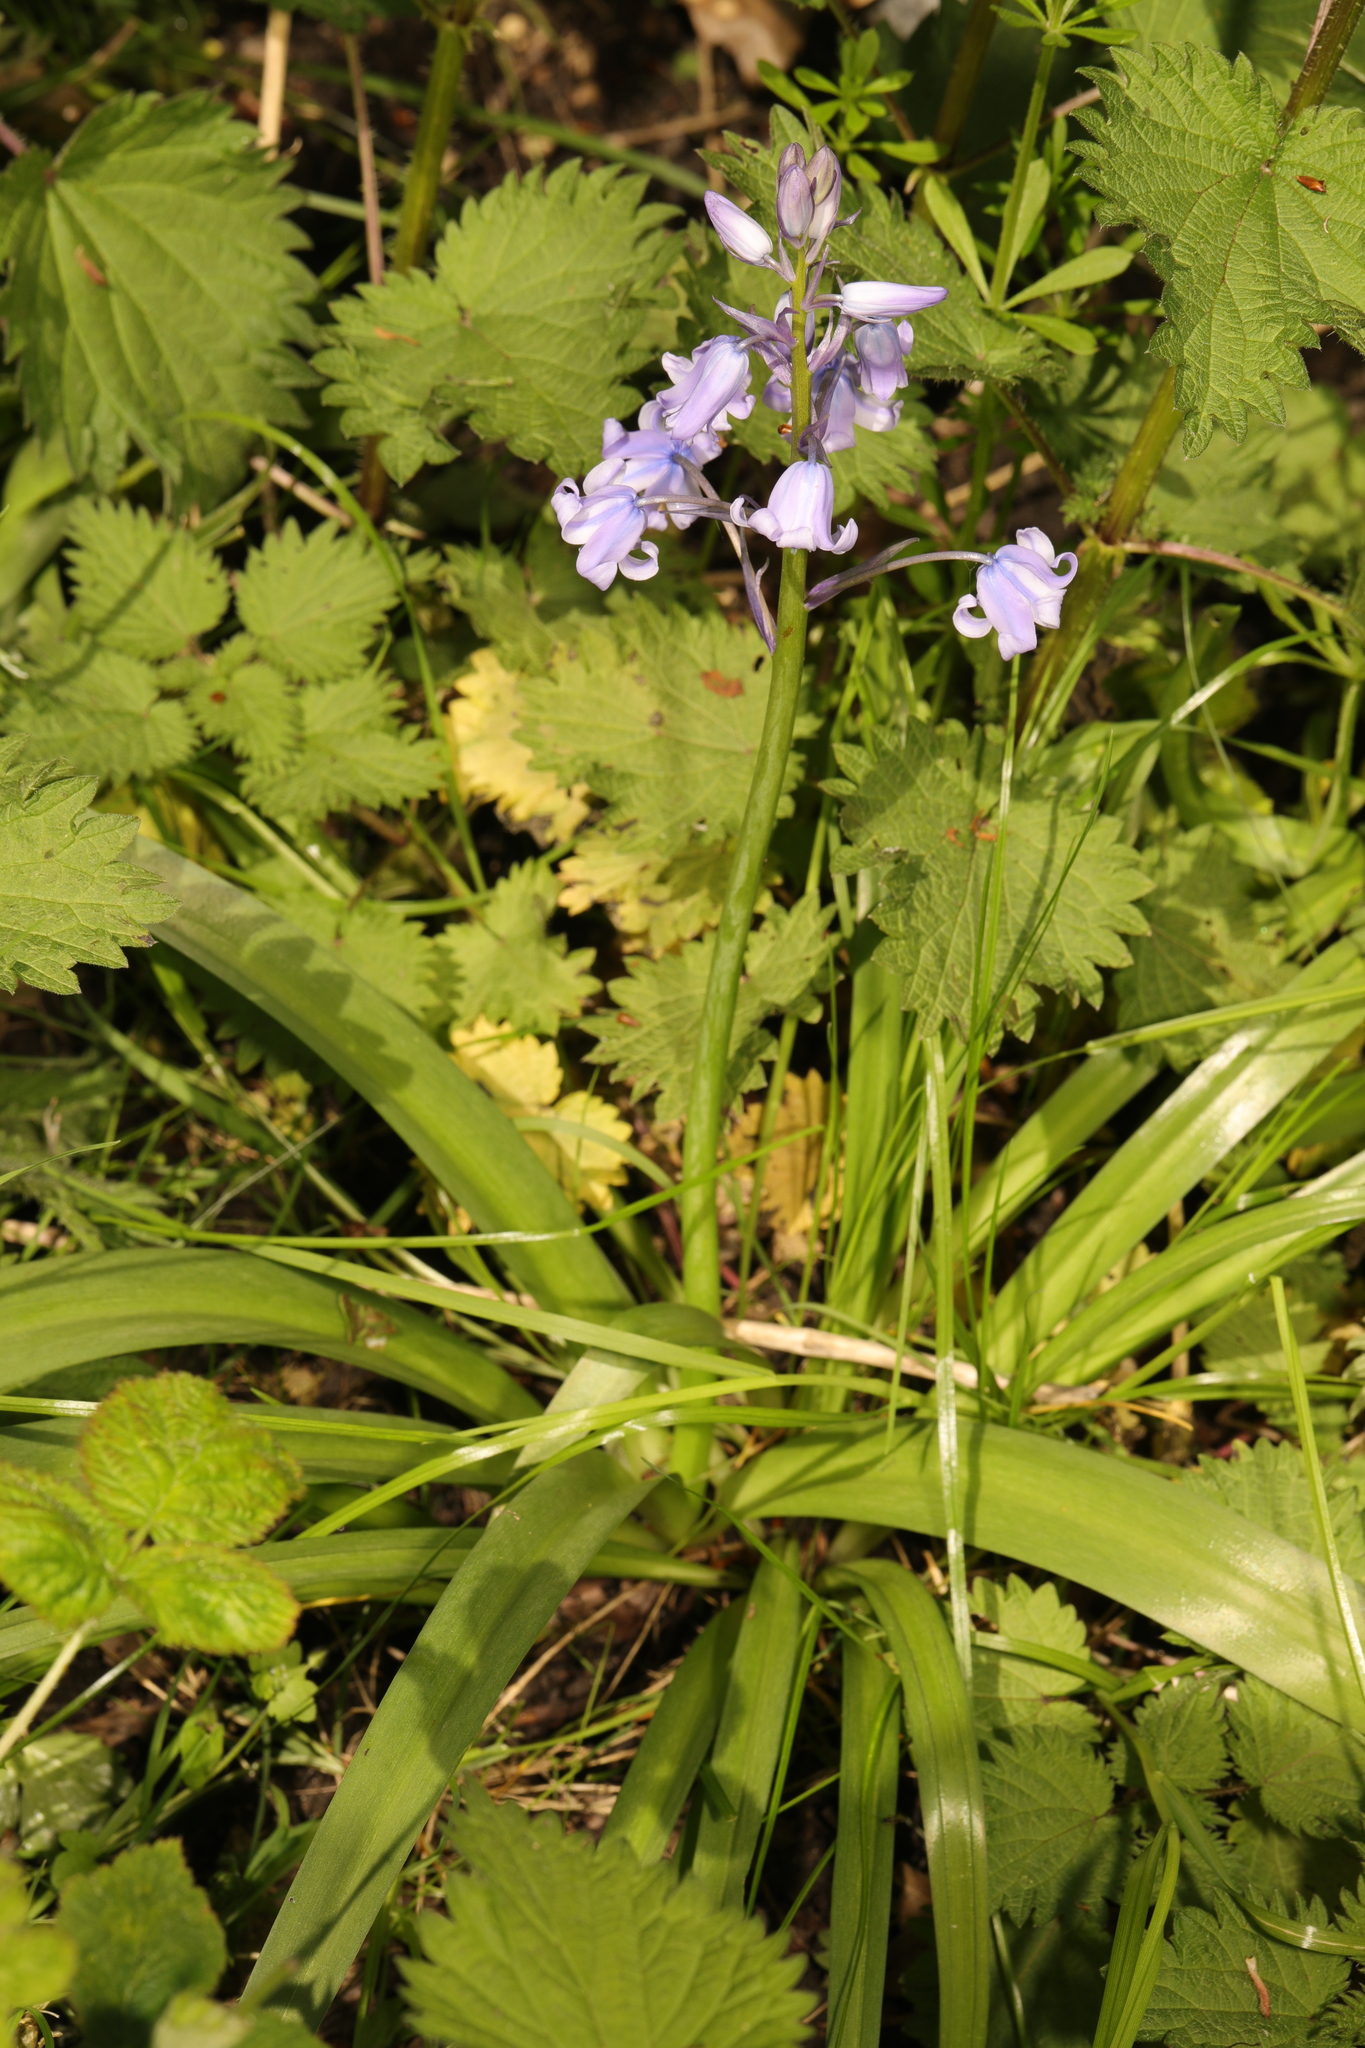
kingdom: Plantae
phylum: Tracheophyta
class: Liliopsida
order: Asparagales
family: Asparagaceae
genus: Hyacinthoides
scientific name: Hyacinthoides hispanica
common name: Spanish bluebell
